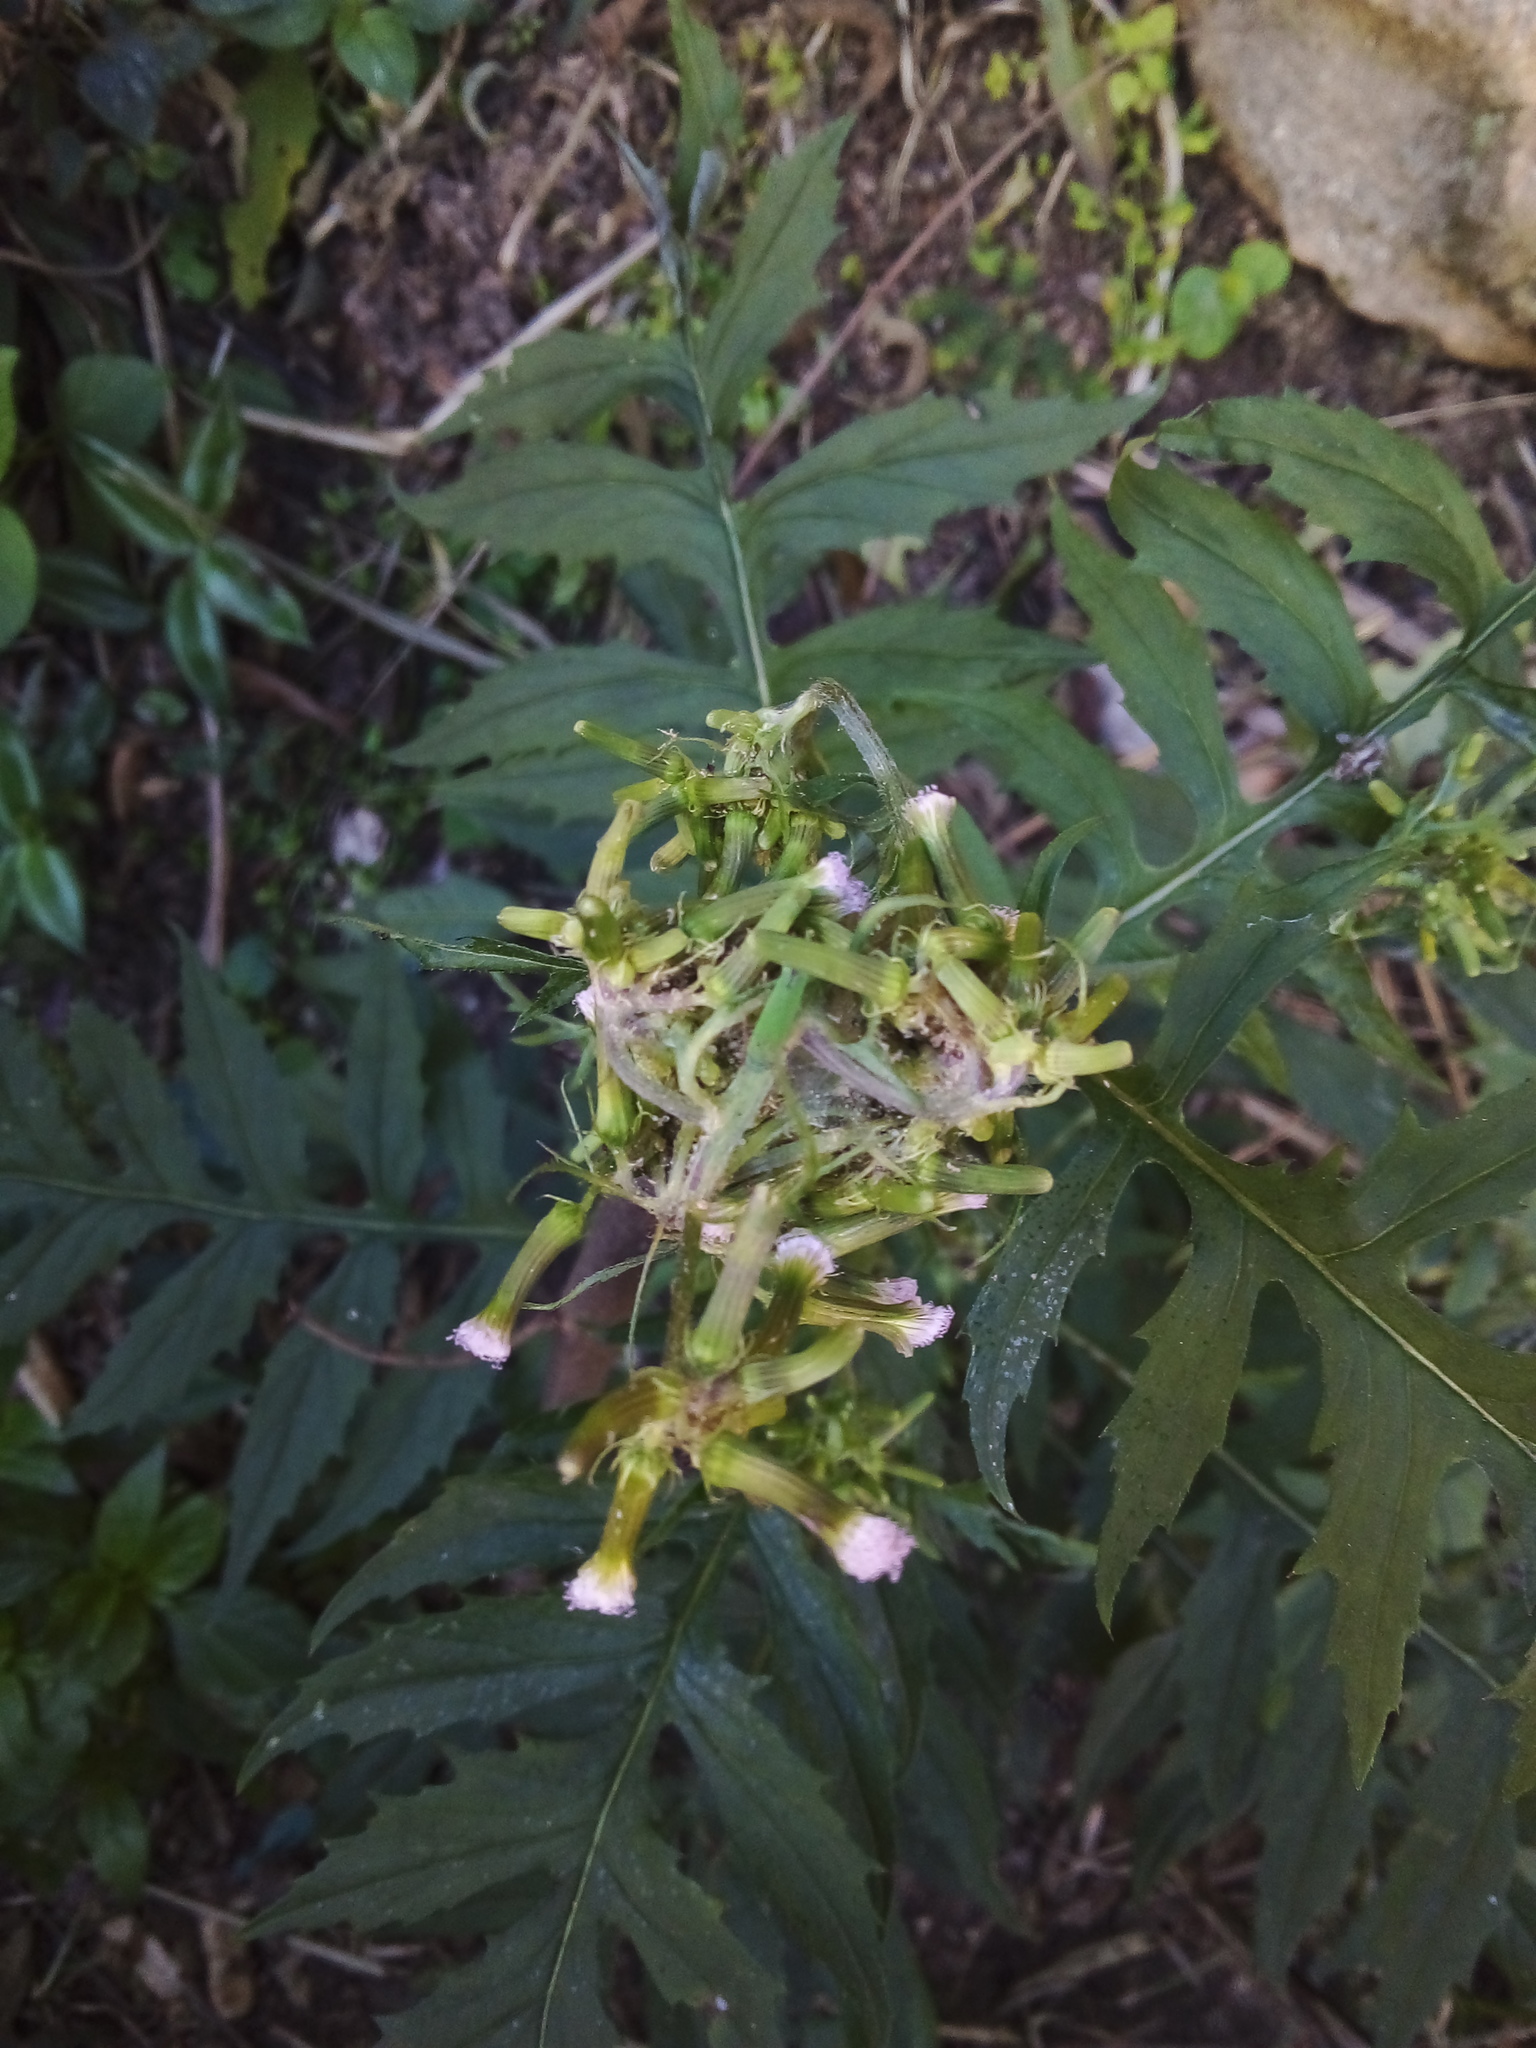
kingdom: Plantae
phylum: Tracheophyta
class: Magnoliopsida
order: Asterales
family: Asteraceae
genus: Erechtites
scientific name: Erechtites valerianifolius
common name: Tropical burnweed
